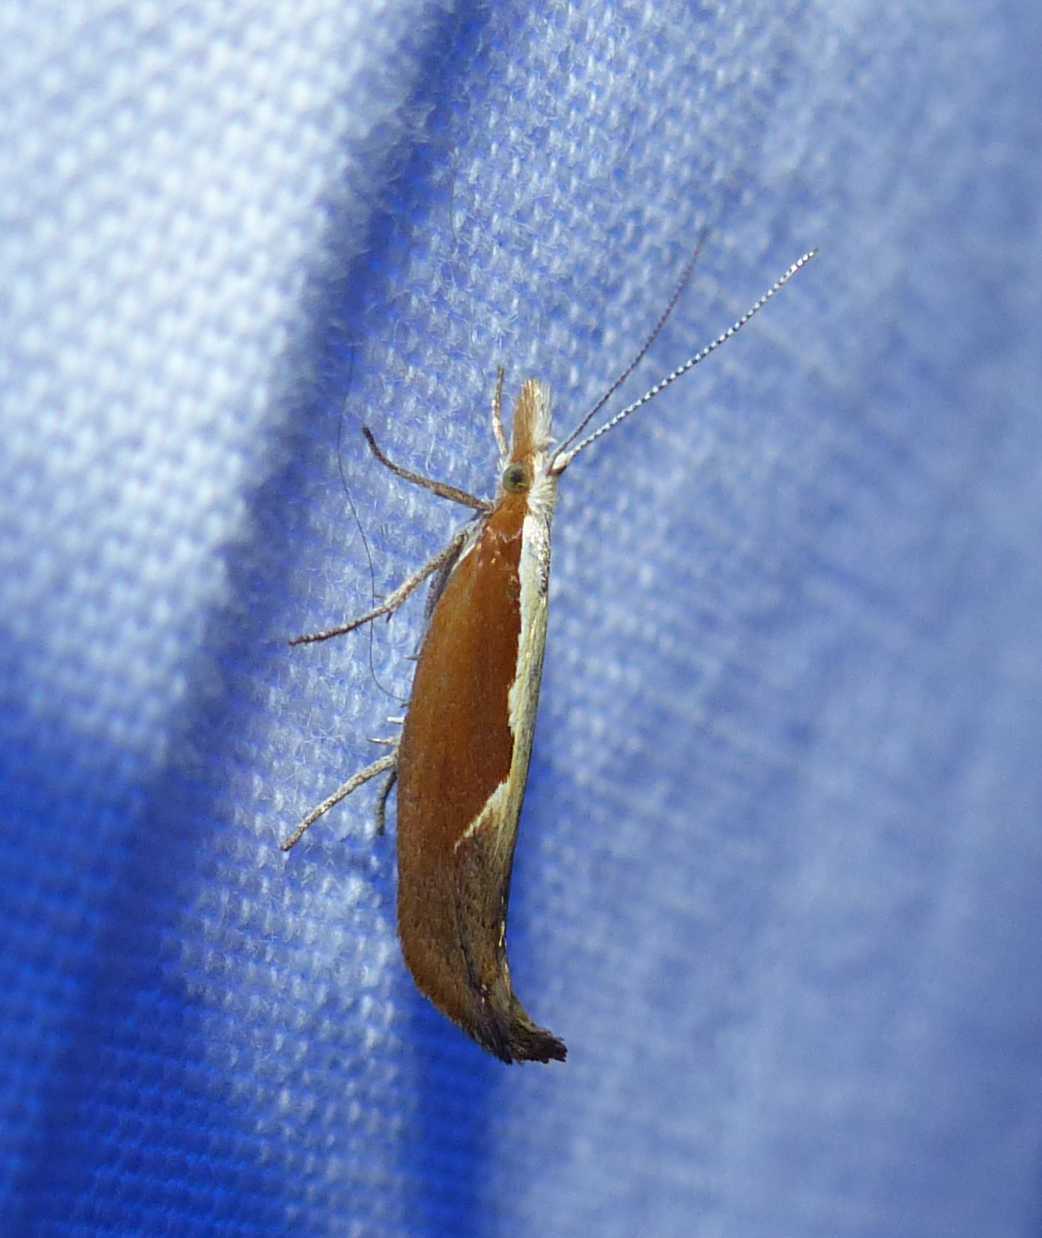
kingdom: Animalia
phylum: Arthropoda
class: Insecta
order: Lepidoptera
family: Ypsolophidae
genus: Ypsolopha
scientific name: Ypsolopha dentella
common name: Honeysuckle moth
